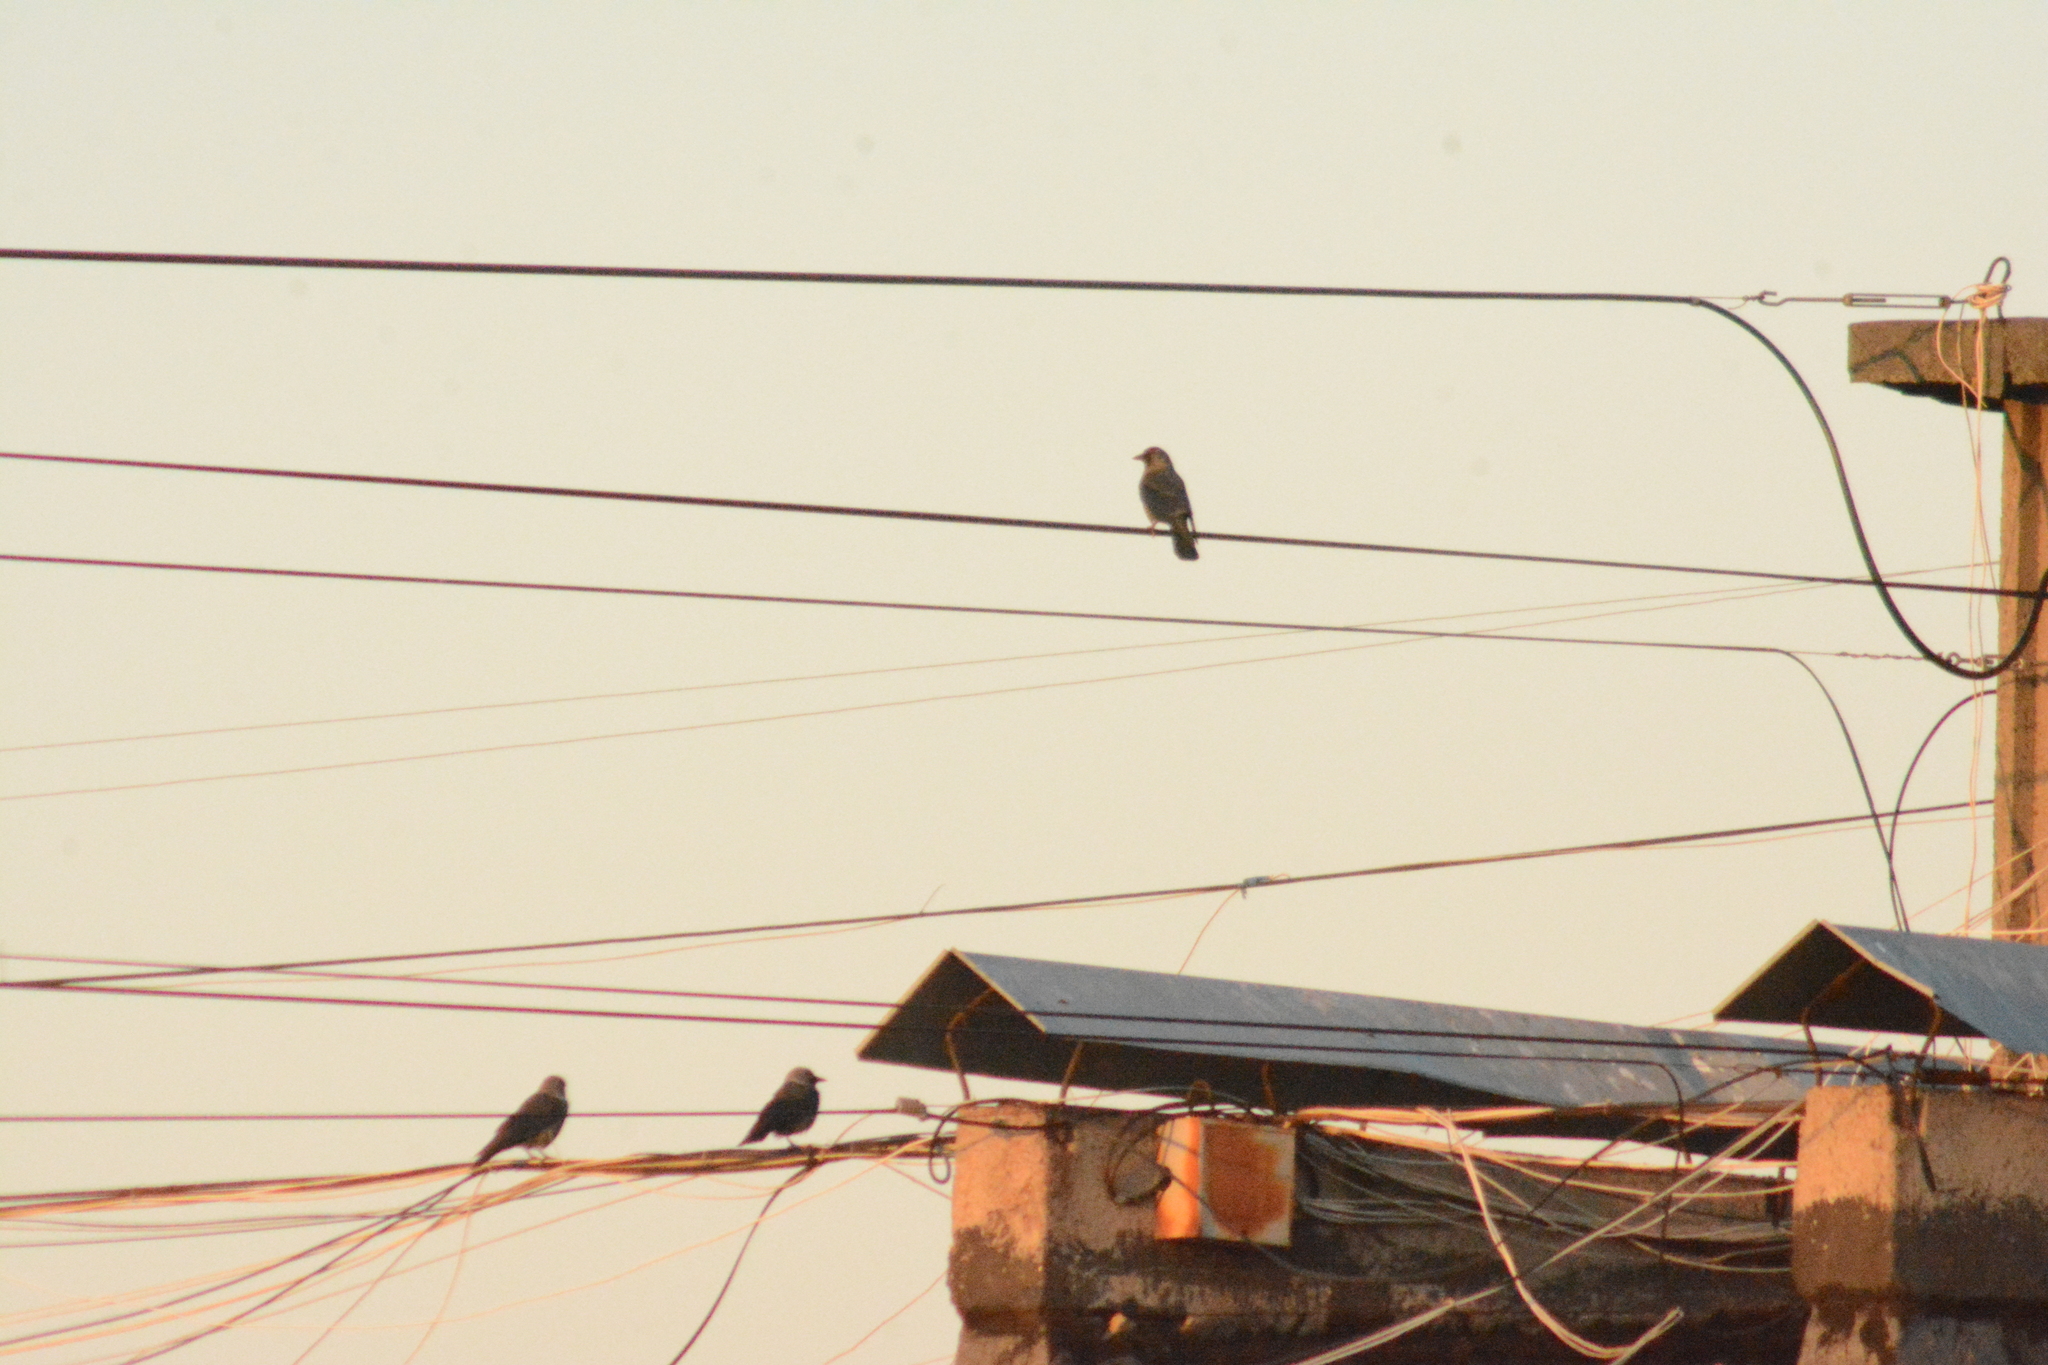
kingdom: Animalia
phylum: Chordata
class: Aves
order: Passeriformes
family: Corvidae
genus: Coloeus
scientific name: Coloeus monedula
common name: Western jackdaw
